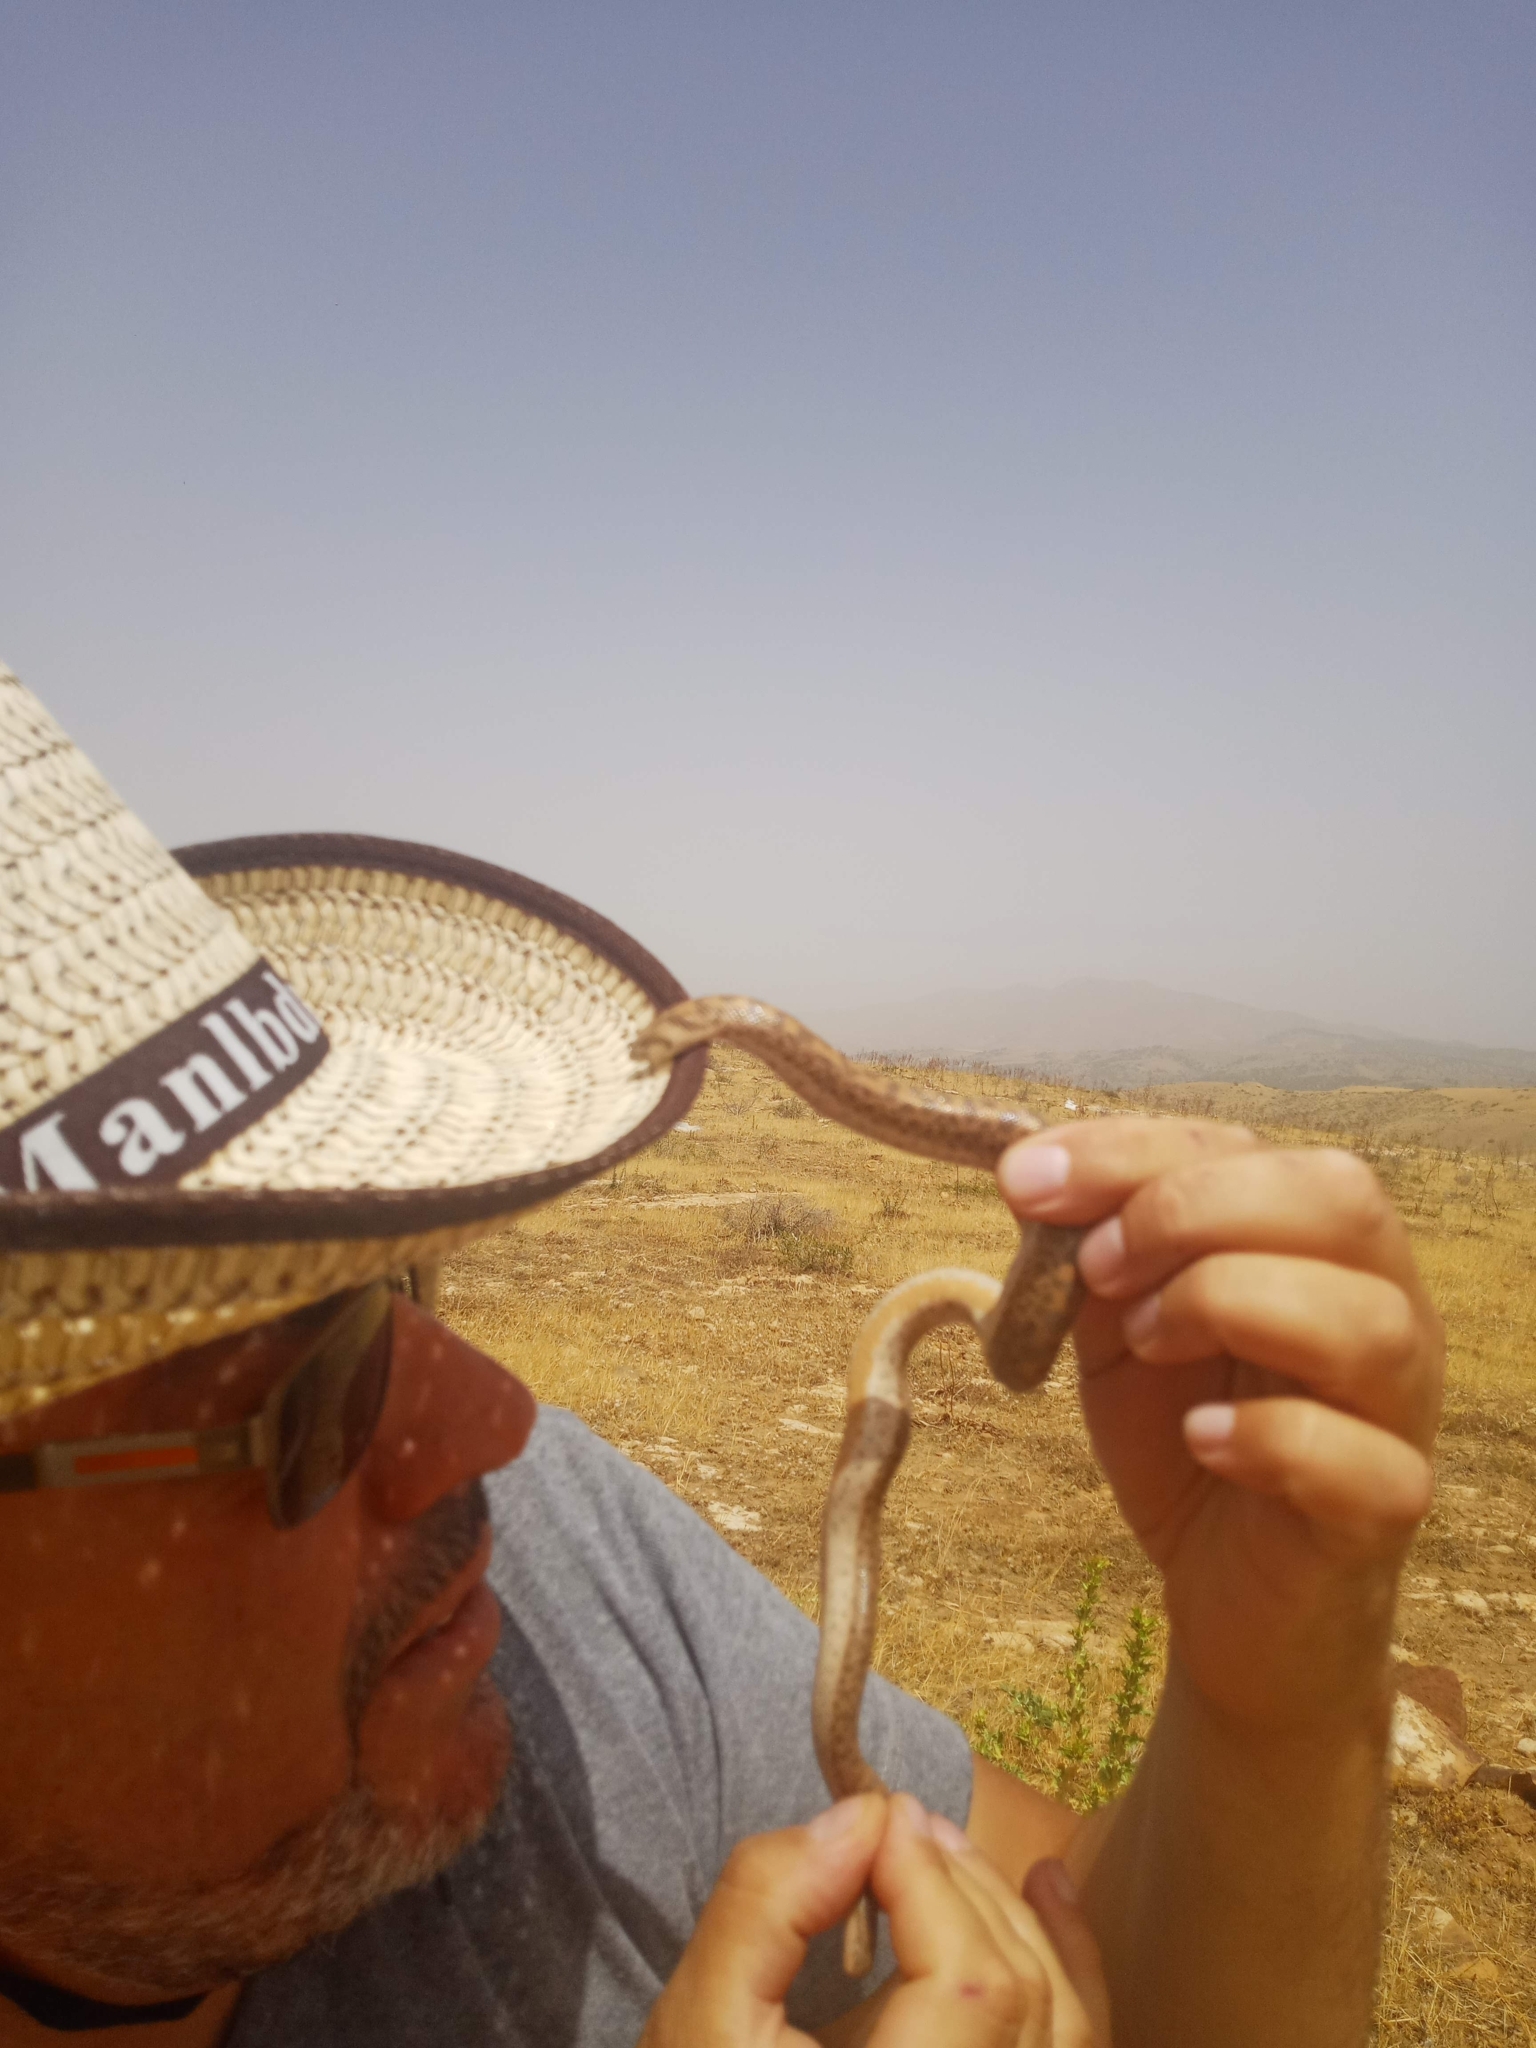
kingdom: Animalia
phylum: Chordata
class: Squamata
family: Boidae
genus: Eryx
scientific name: Eryx jaculus
